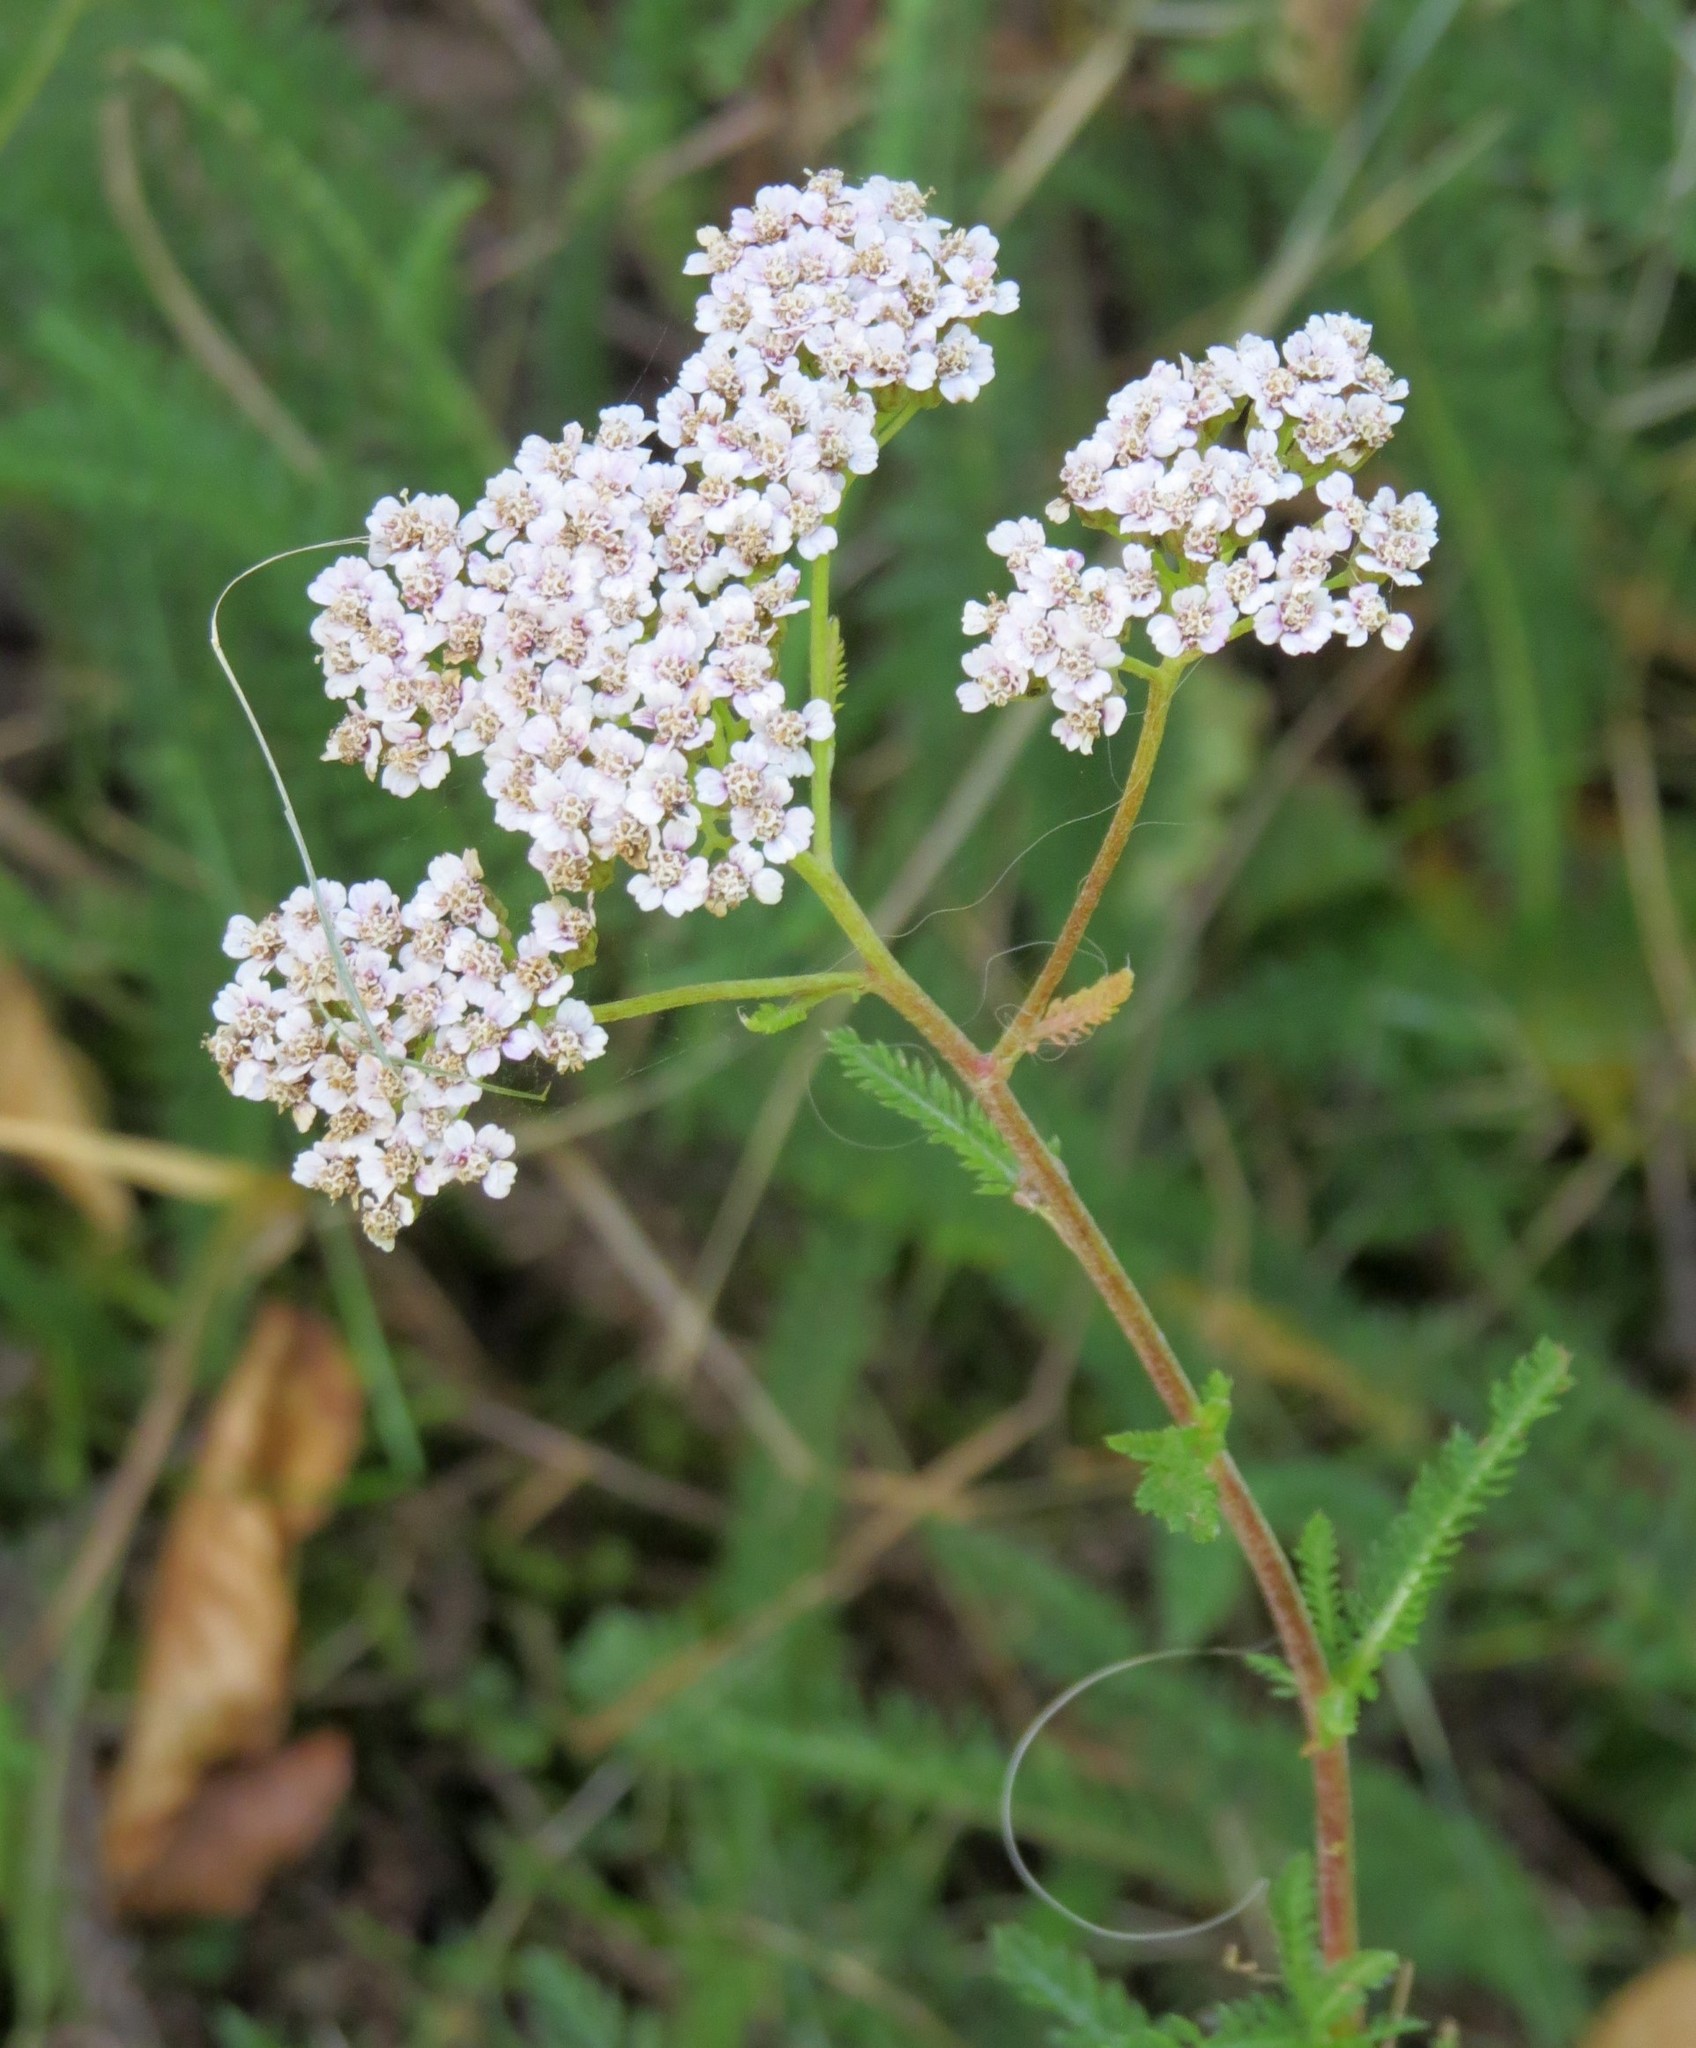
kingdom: Plantae
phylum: Tracheophyta
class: Magnoliopsida
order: Asterales
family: Asteraceae
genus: Achillea
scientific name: Achillea millefolium
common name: Yarrow
